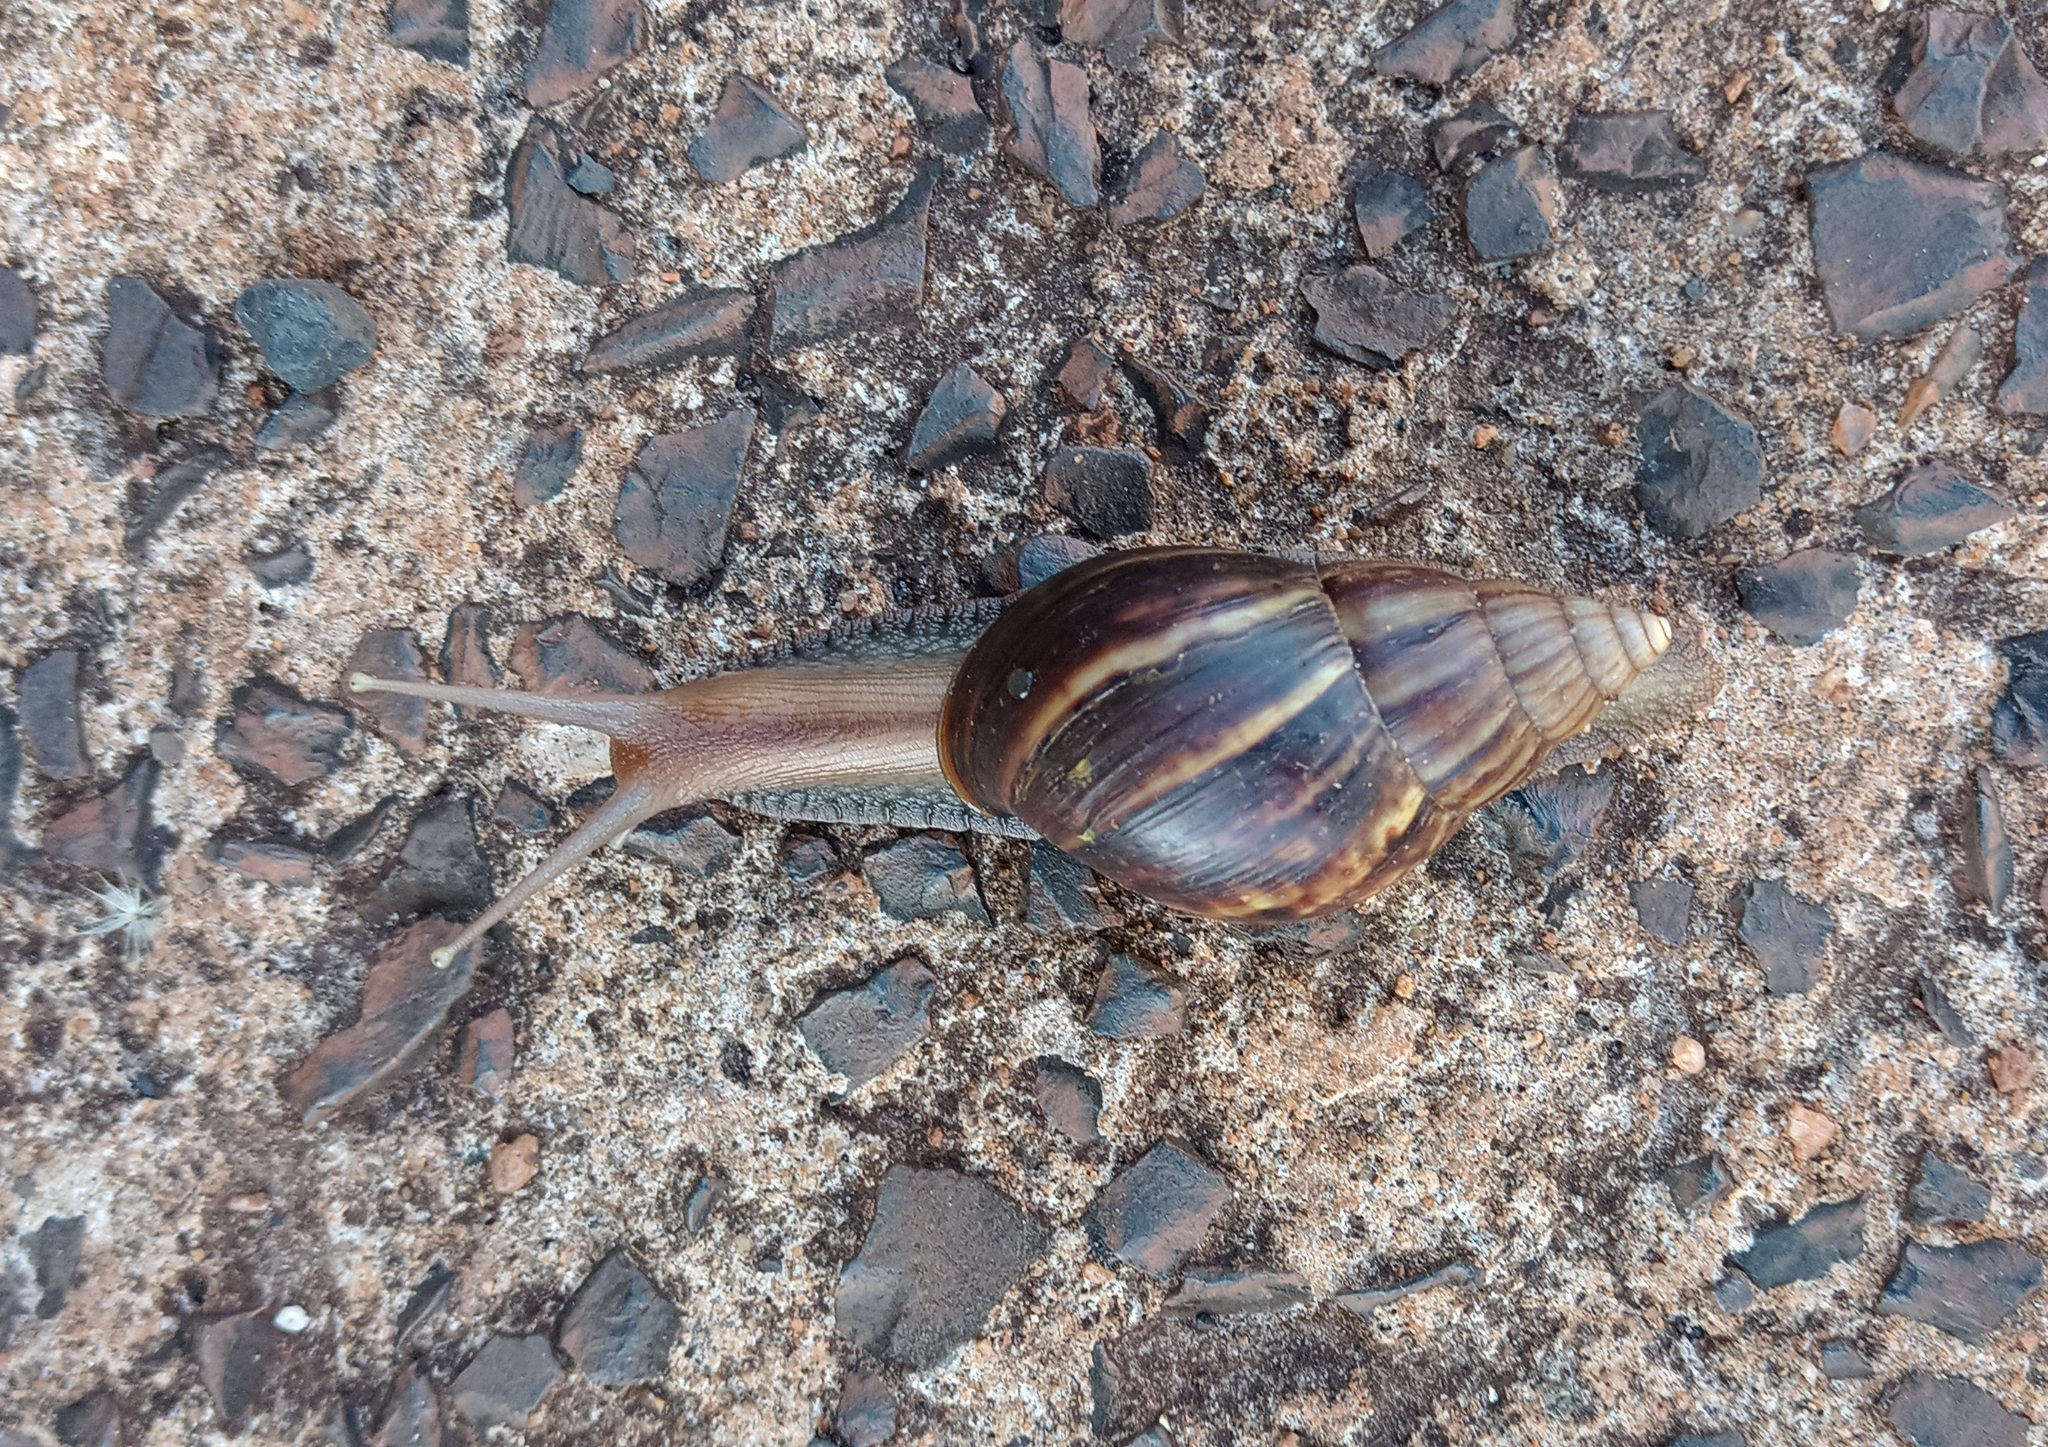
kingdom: Animalia
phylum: Mollusca
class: Gastropoda
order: Stylommatophora
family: Achatinidae
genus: Lissachatina
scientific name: Lissachatina fulica
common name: Giant african snail
